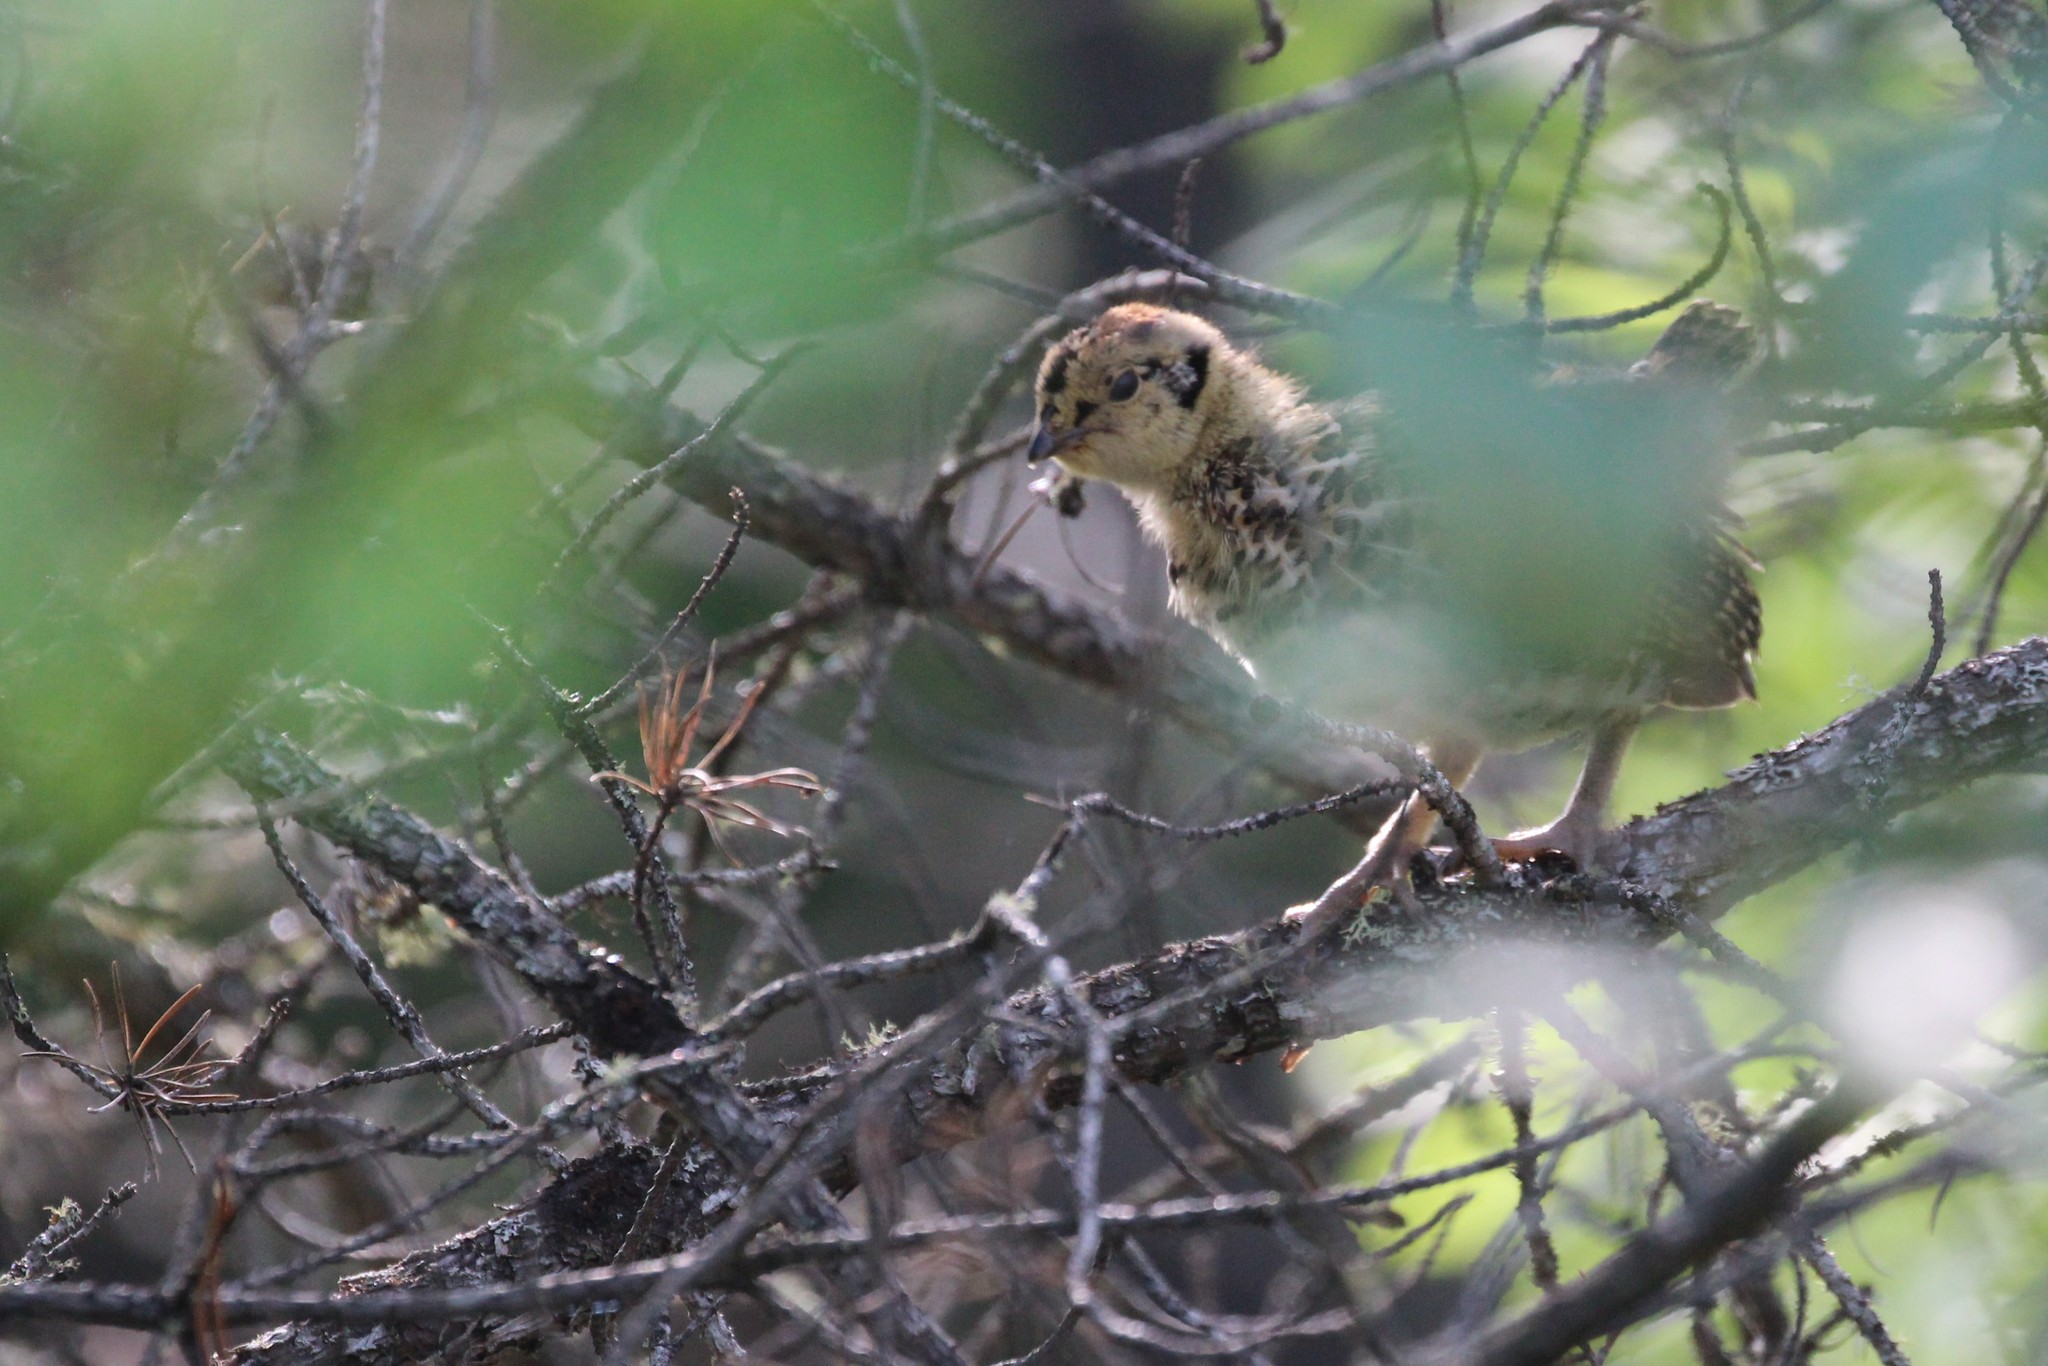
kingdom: Animalia
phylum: Chordata
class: Aves
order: Galliformes
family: Phasianidae
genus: Canachites
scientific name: Canachites canadensis
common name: Spruce grouse
